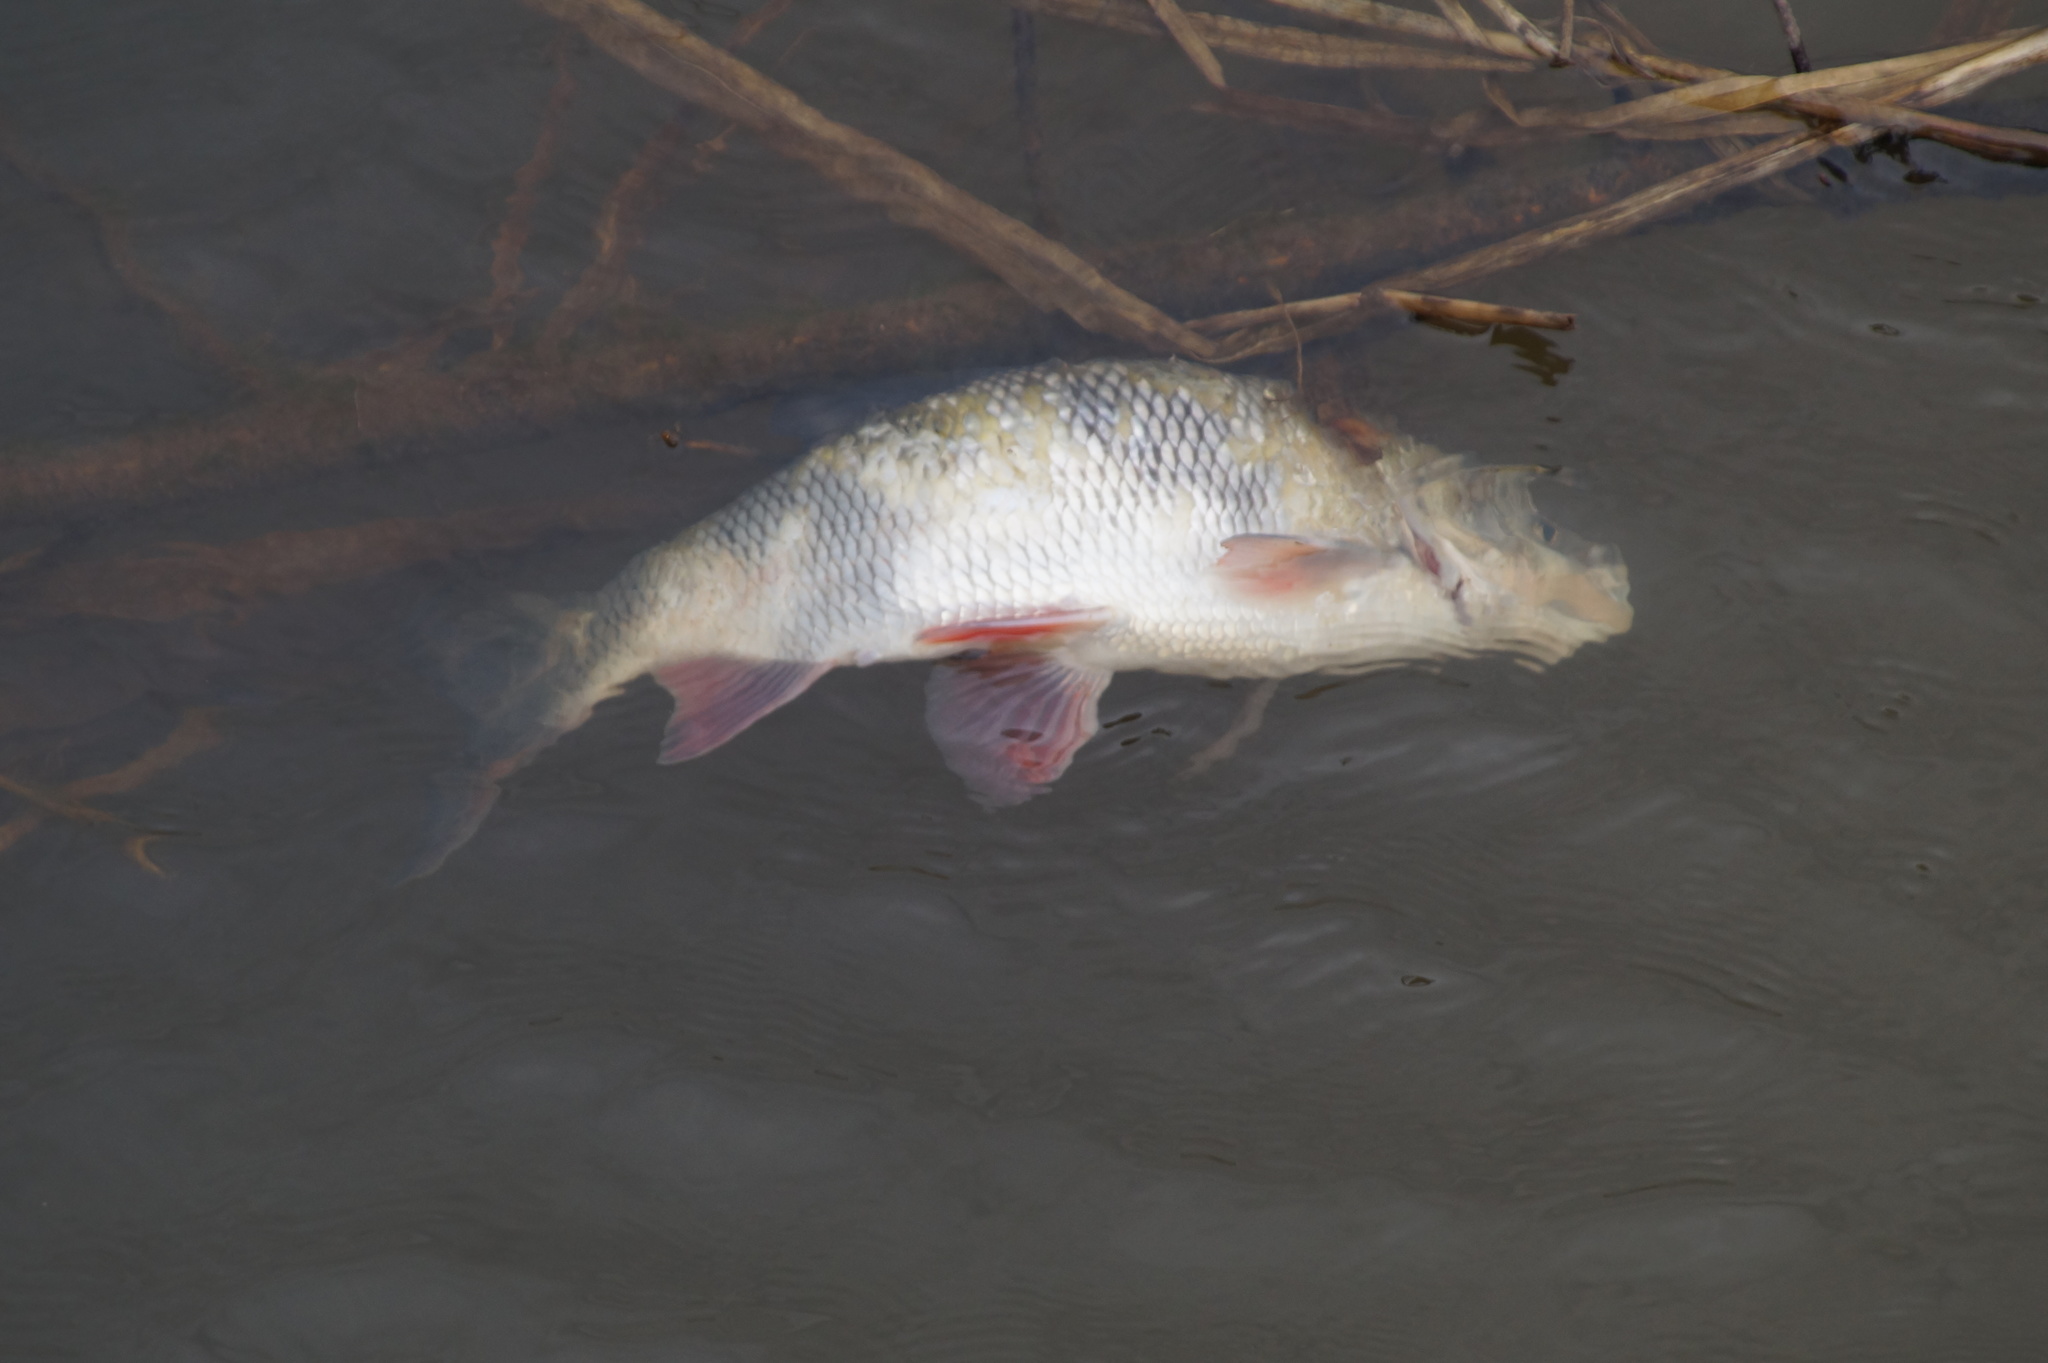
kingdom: Animalia
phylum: Chordata
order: Cypriniformes
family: Cyprinidae
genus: Leuciscus
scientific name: Leuciscus idus
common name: Ide
